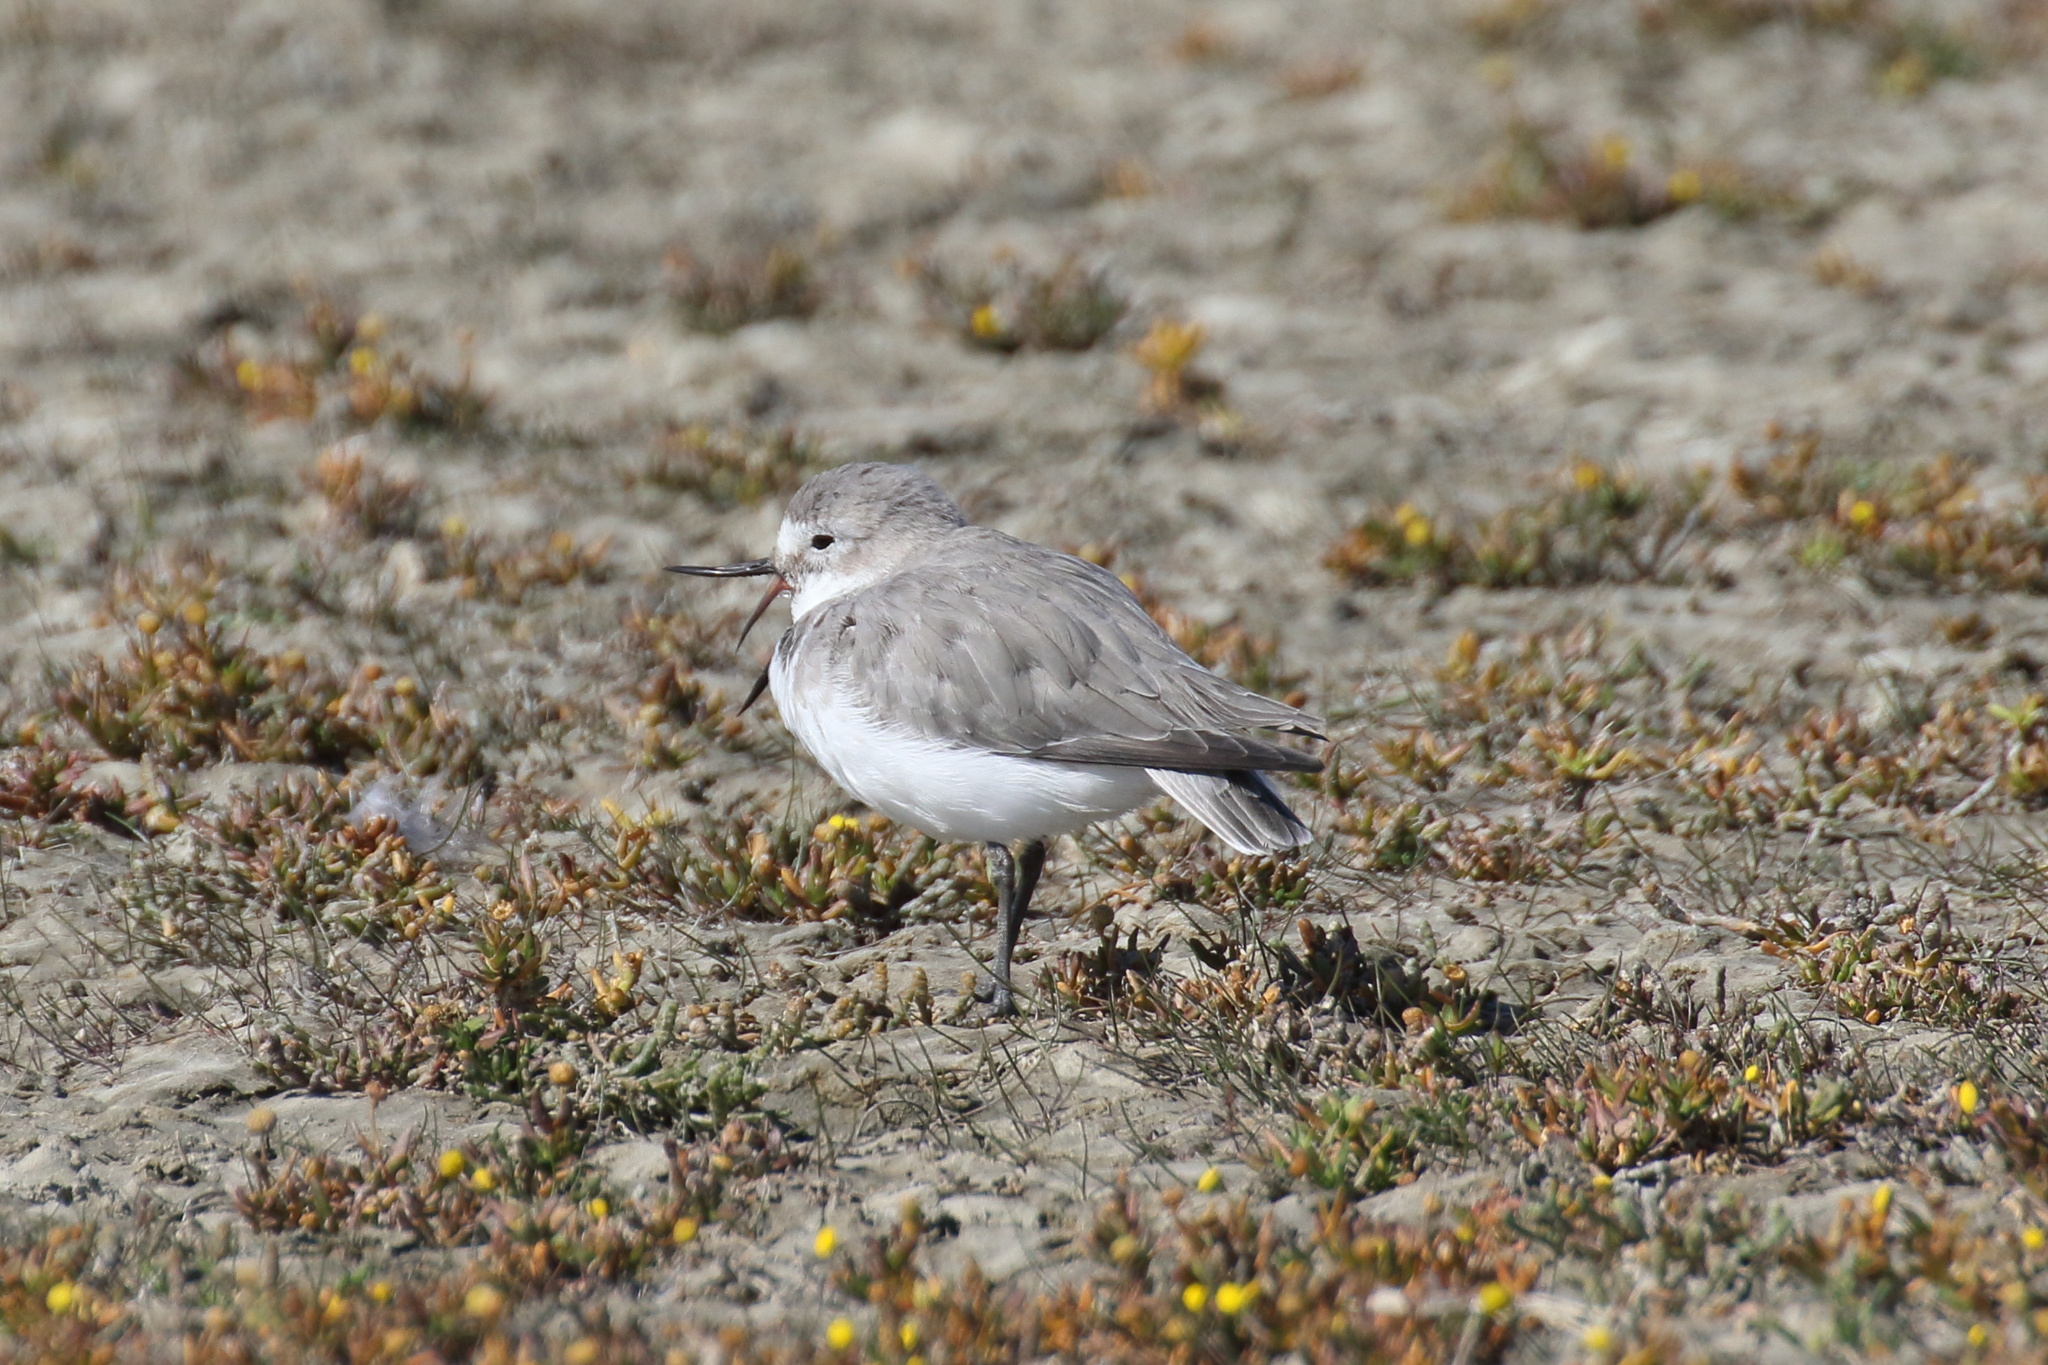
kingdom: Animalia
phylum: Chordata
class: Aves
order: Charadriiformes
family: Charadriidae
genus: Anarhynchus
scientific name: Anarhynchus frontalis
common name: Wrybill
